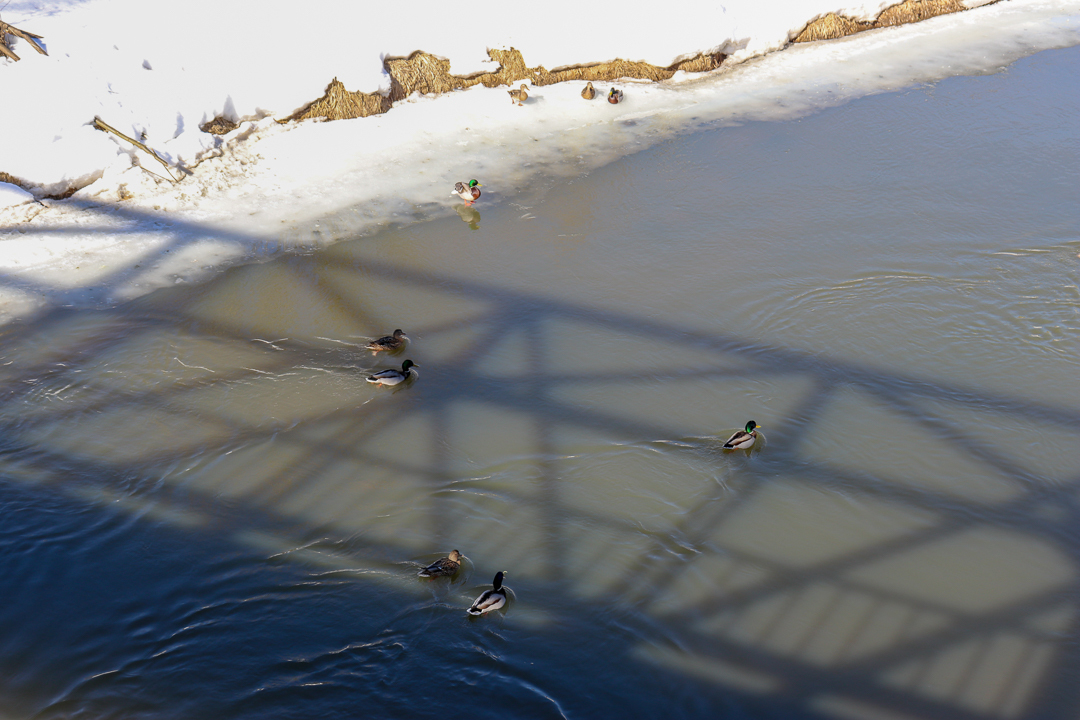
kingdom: Animalia
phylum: Chordata
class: Aves
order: Anseriformes
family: Anatidae
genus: Anas
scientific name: Anas platyrhynchos
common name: Mallard
